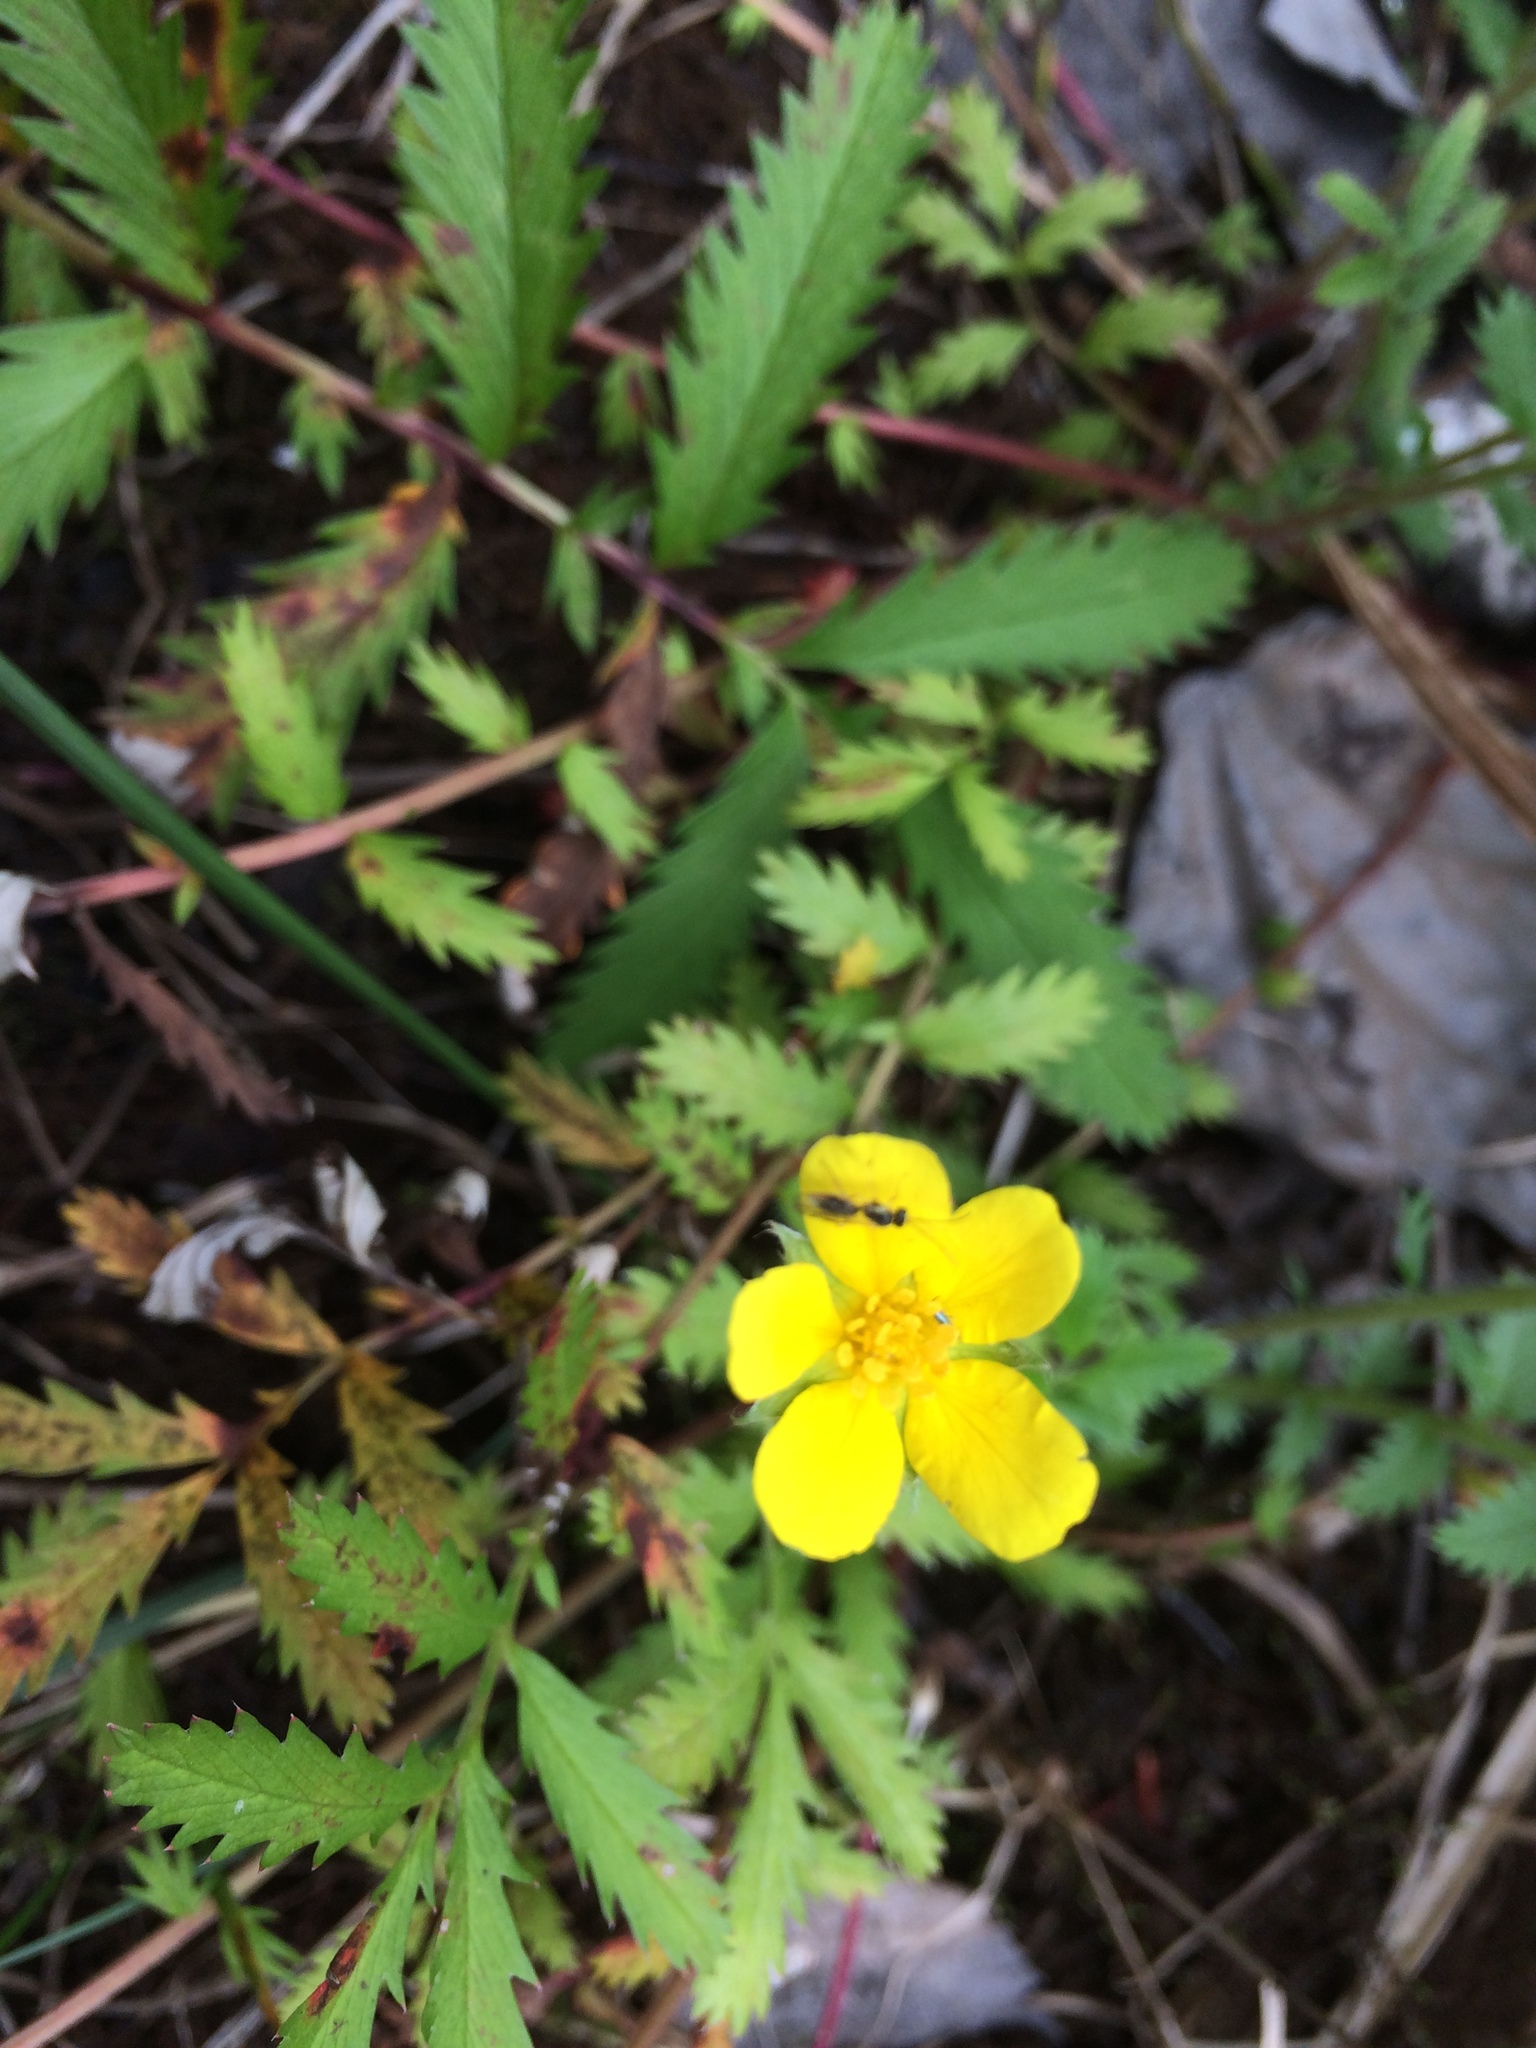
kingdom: Plantae
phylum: Tracheophyta
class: Magnoliopsida
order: Rosales
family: Rosaceae
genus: Argentina
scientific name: Argentina anserina
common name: Common silverweed
